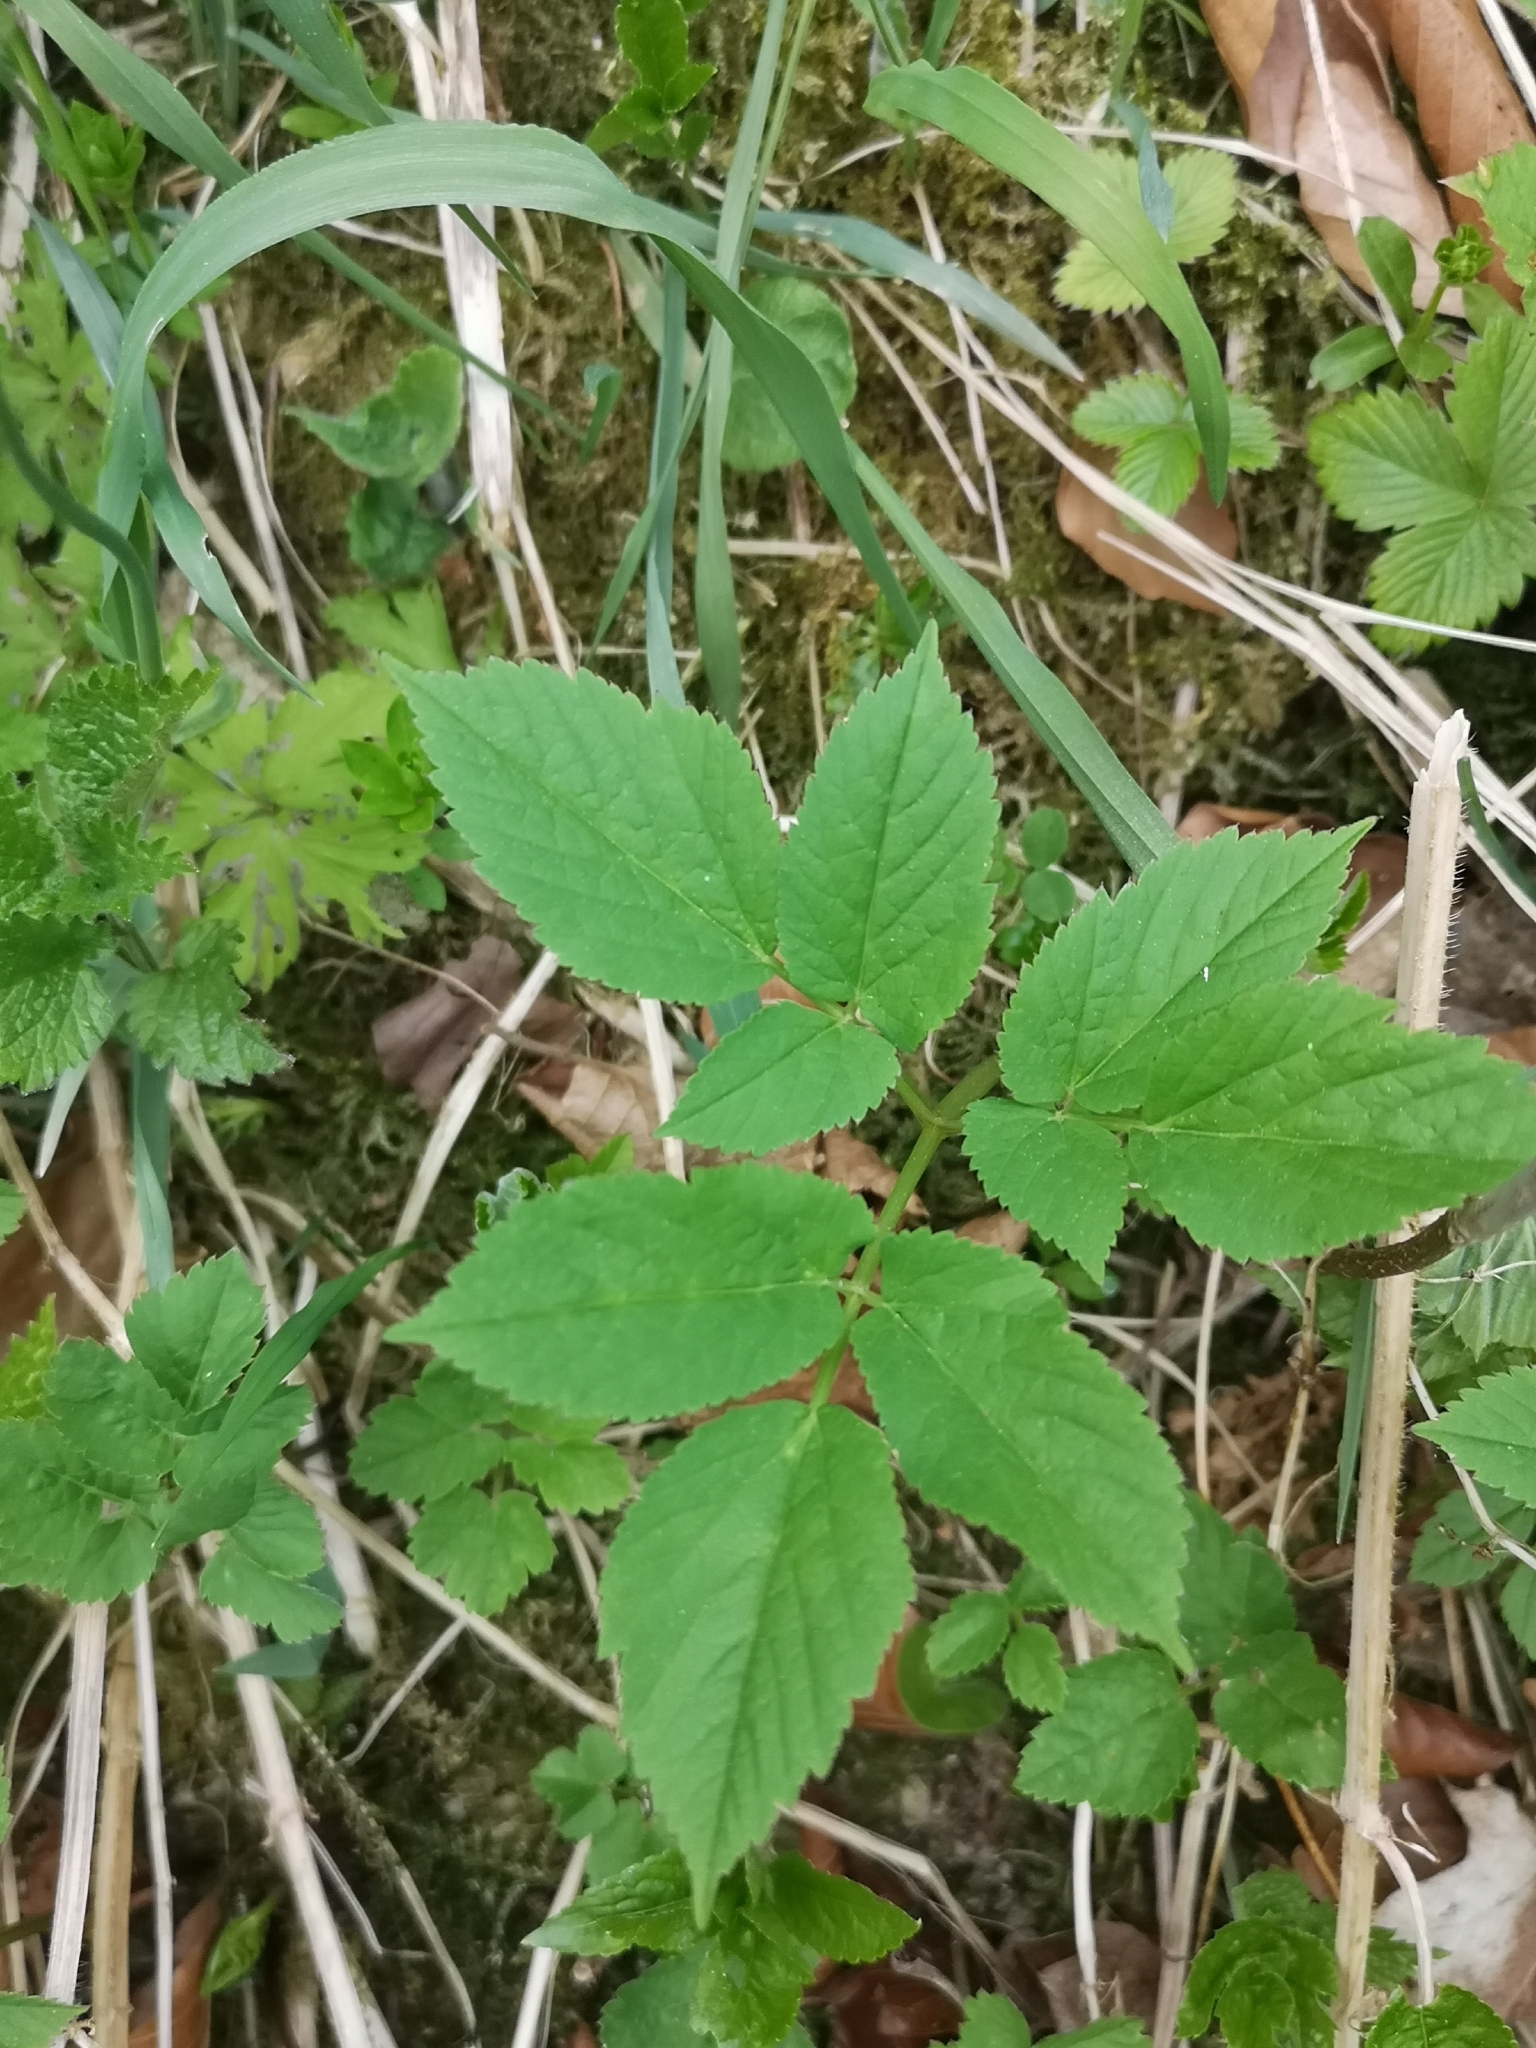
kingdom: Plantae
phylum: Tracheophyta
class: Magnoliopsida
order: Apiales
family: Apiaceae
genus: Aegopodium
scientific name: Aegopodium podagraria
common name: Ground-elder
